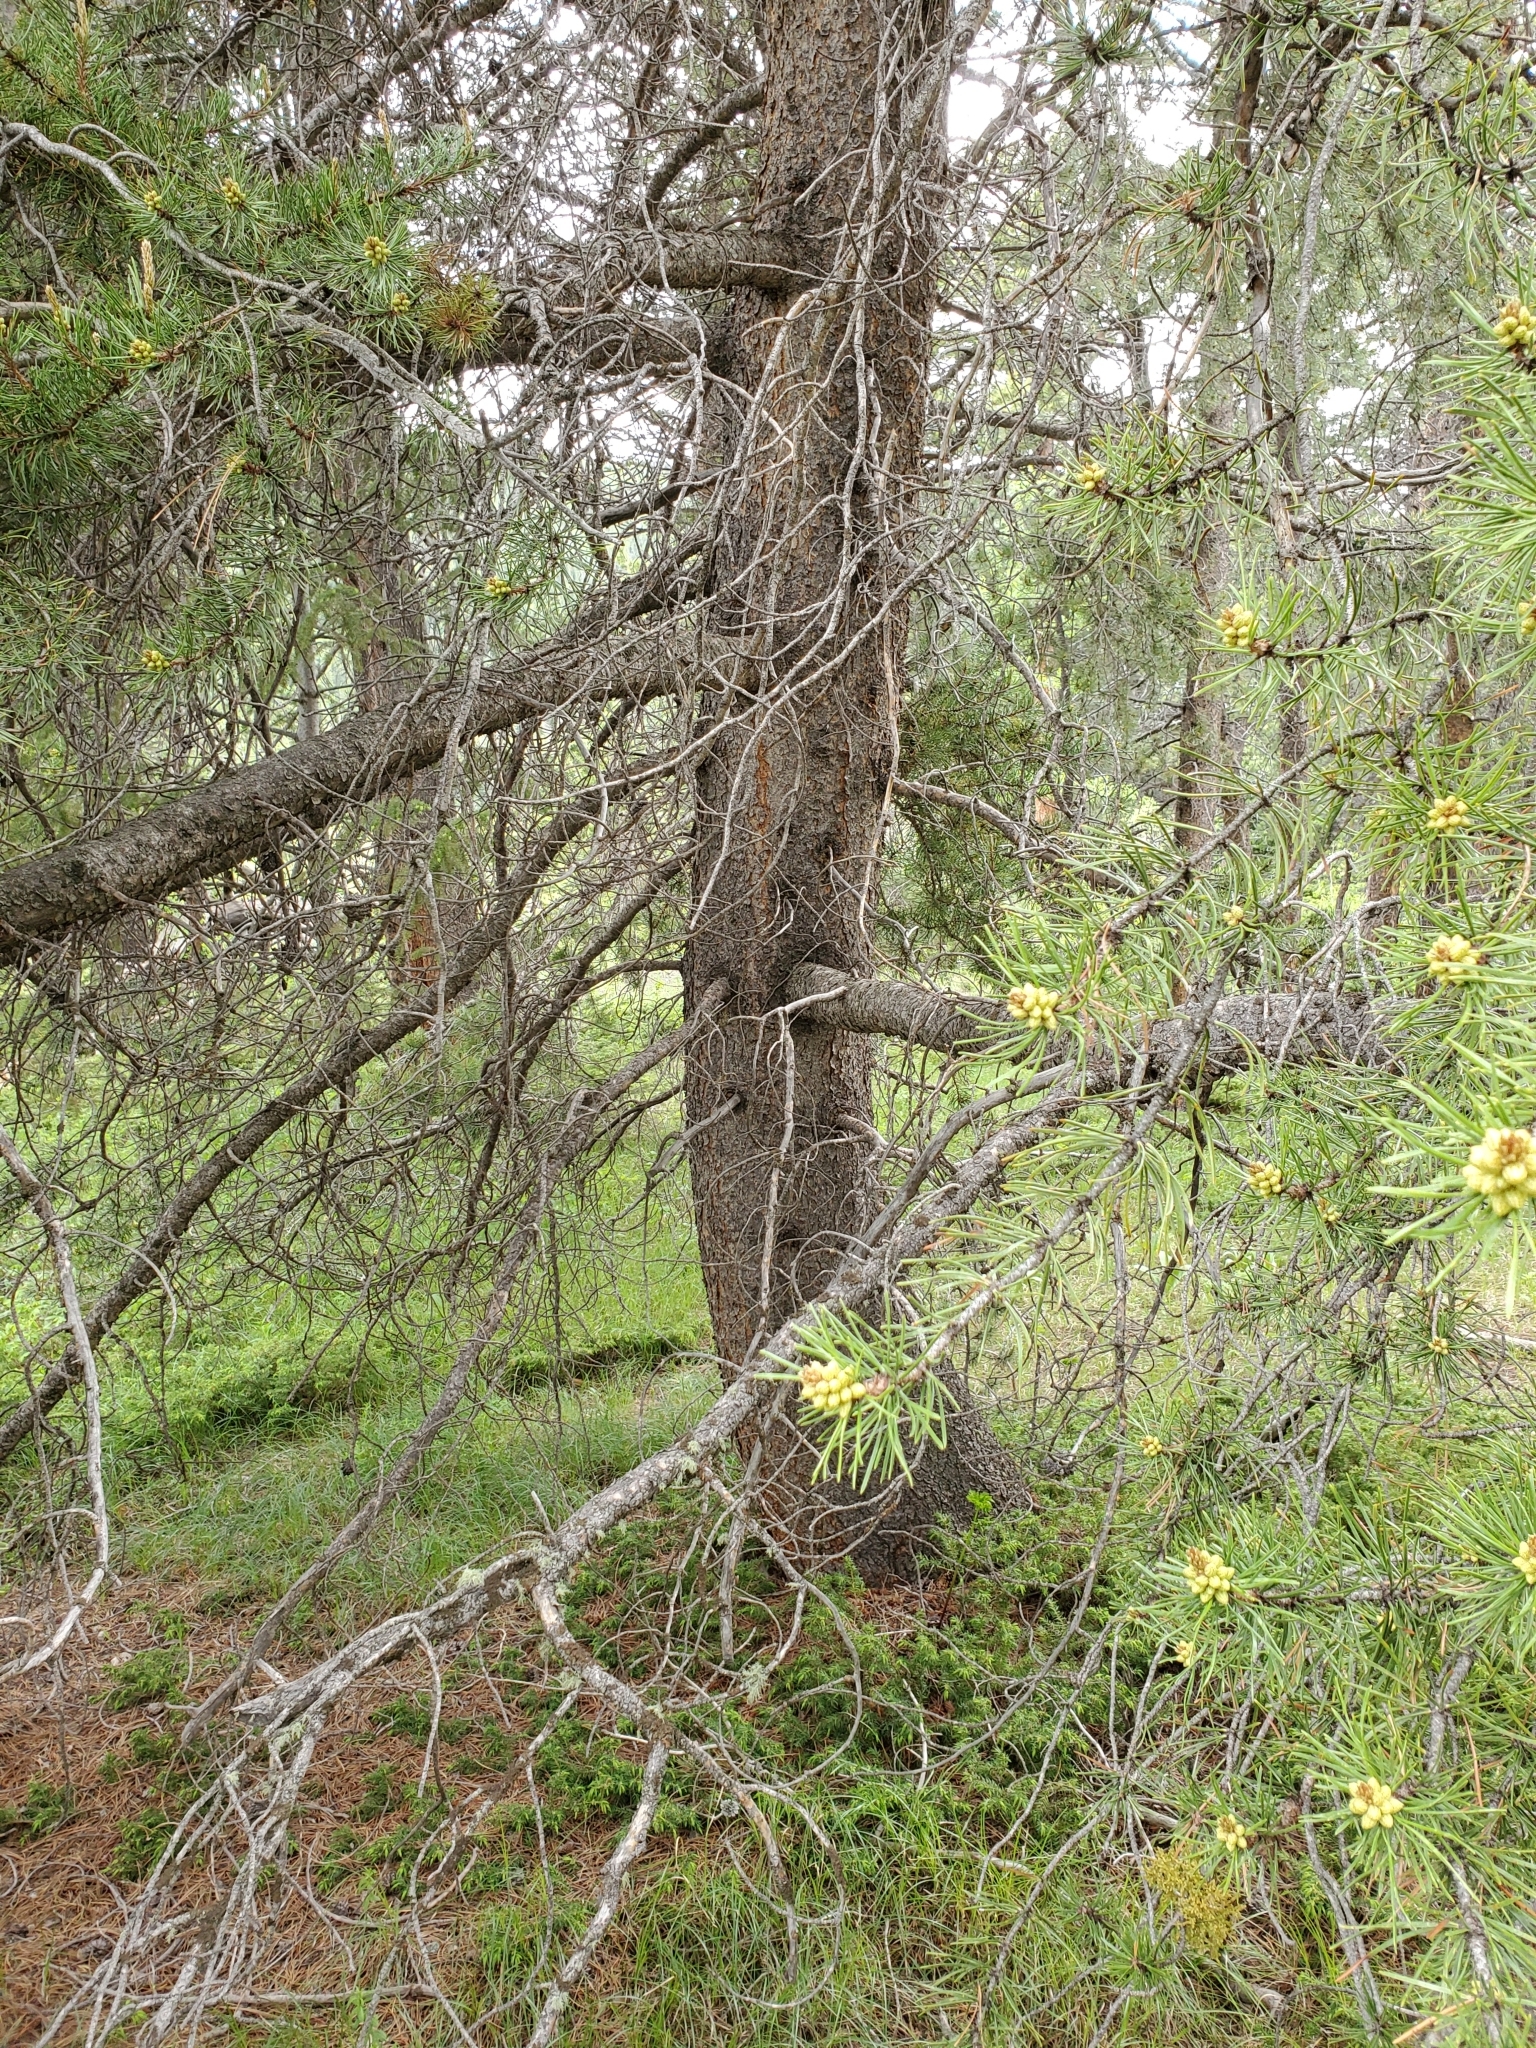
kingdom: Plantae
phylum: Tracheophyta
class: Pinopsida
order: Pinales
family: Pinaceae
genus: Pinus
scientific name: Pinus contorta
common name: Lodgepole pine
